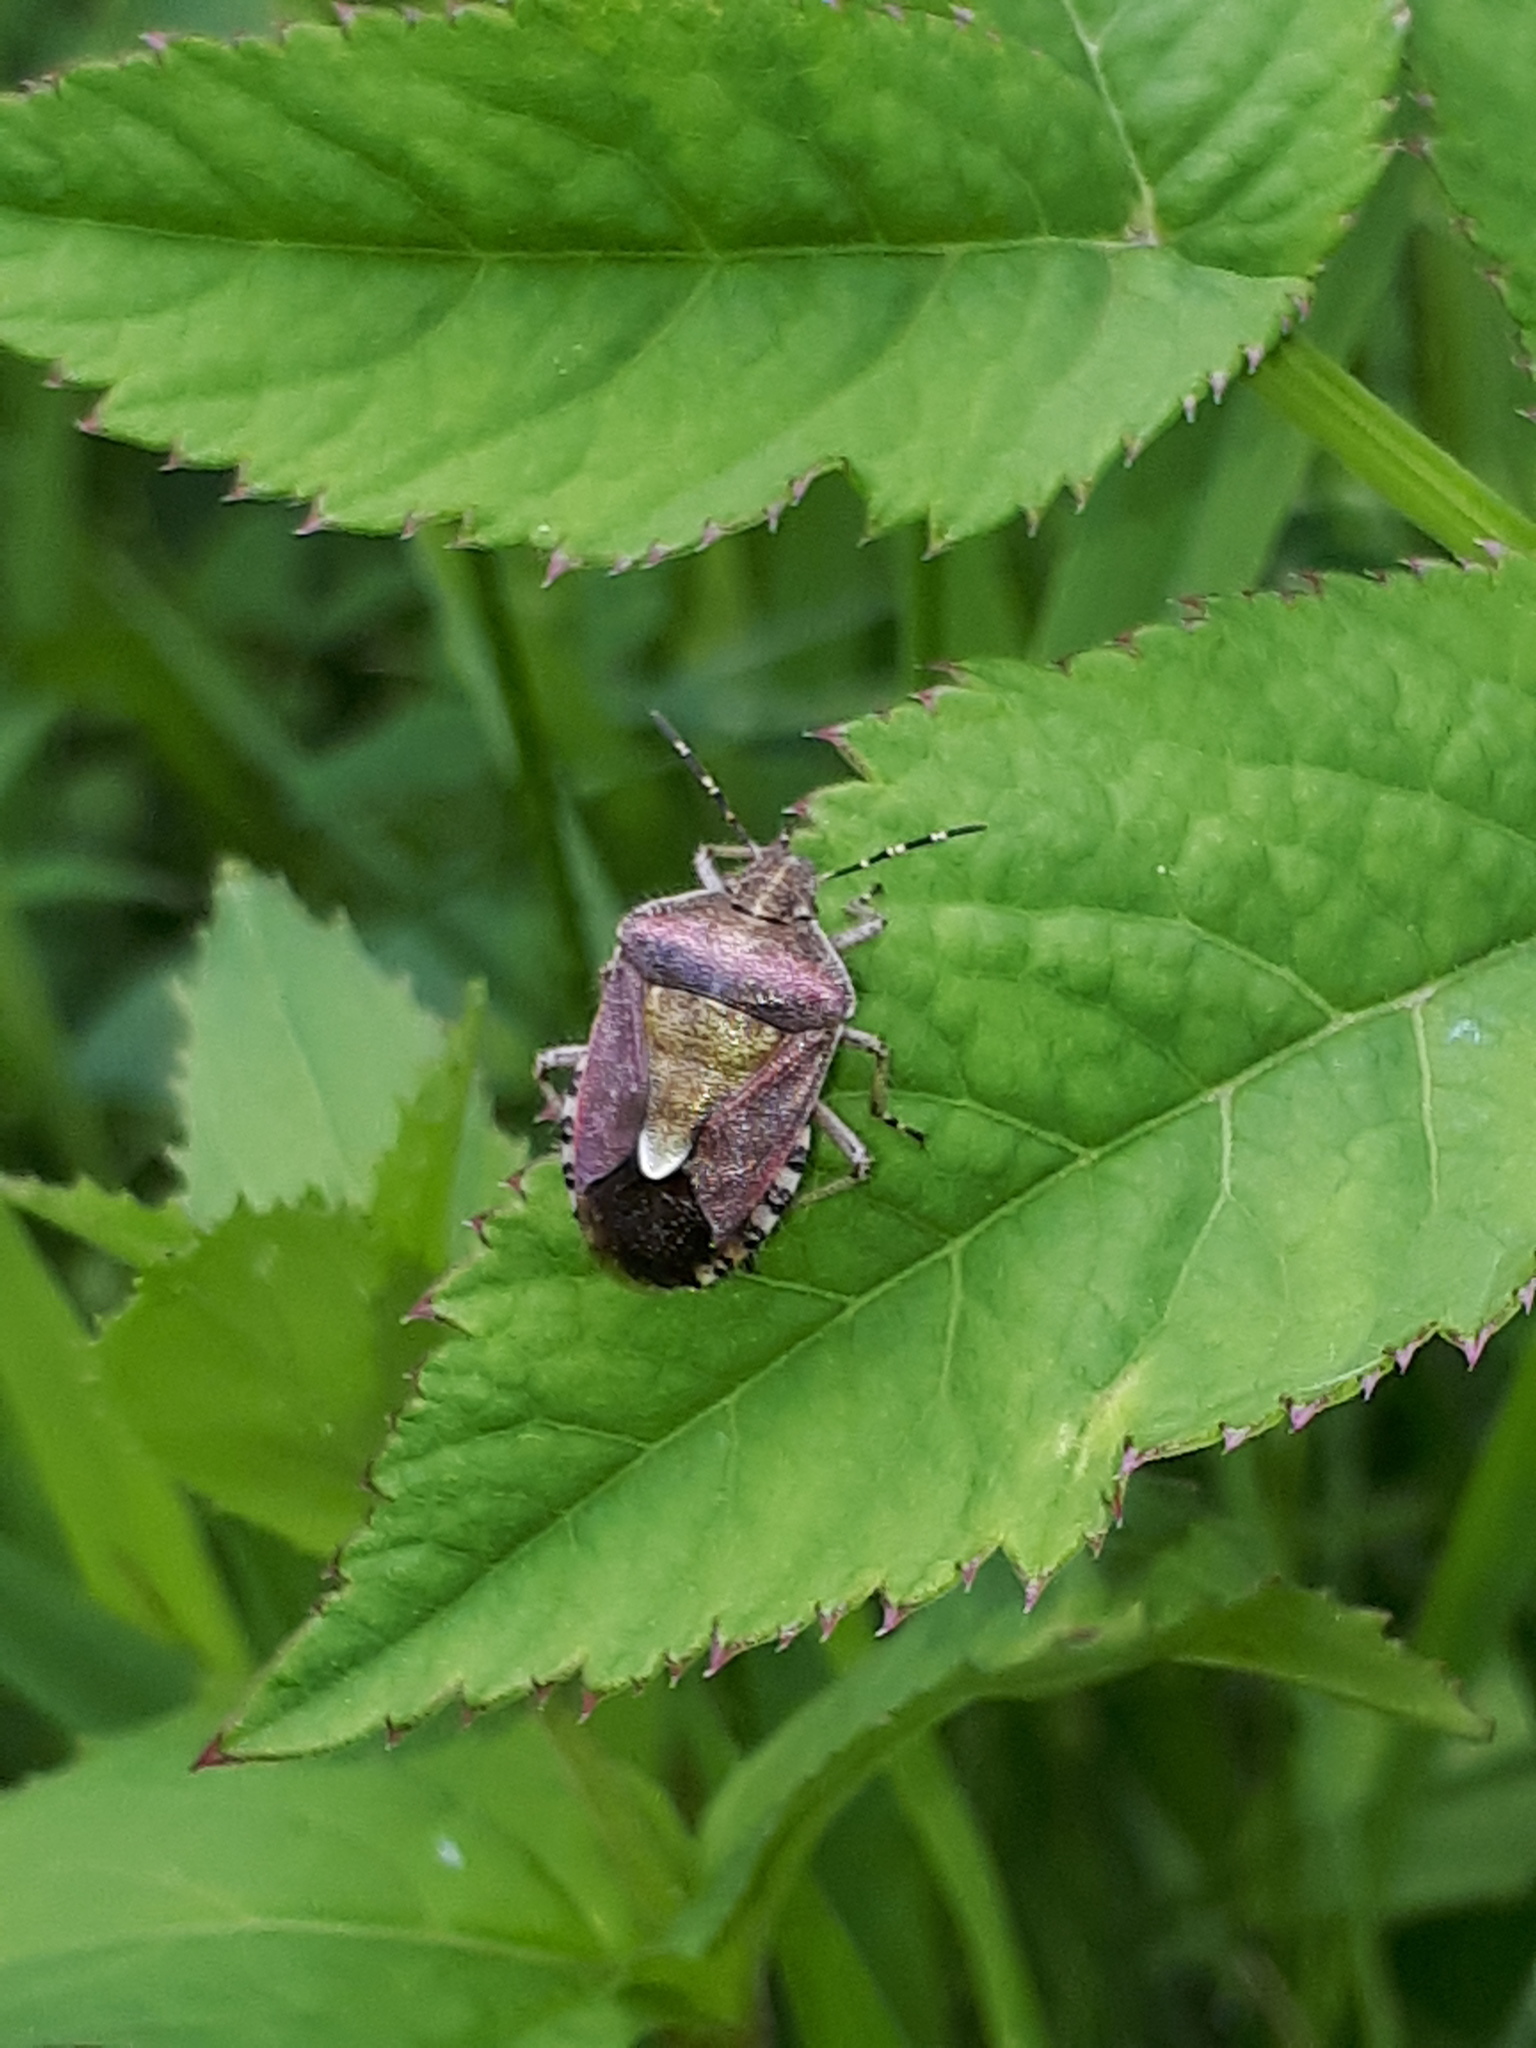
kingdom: Animalia
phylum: Arthropoda
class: Insecta
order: Hemiptera
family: Pentatomidae
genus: Dolycoris
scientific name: Dolycoris baccarum
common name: Sloe bug
